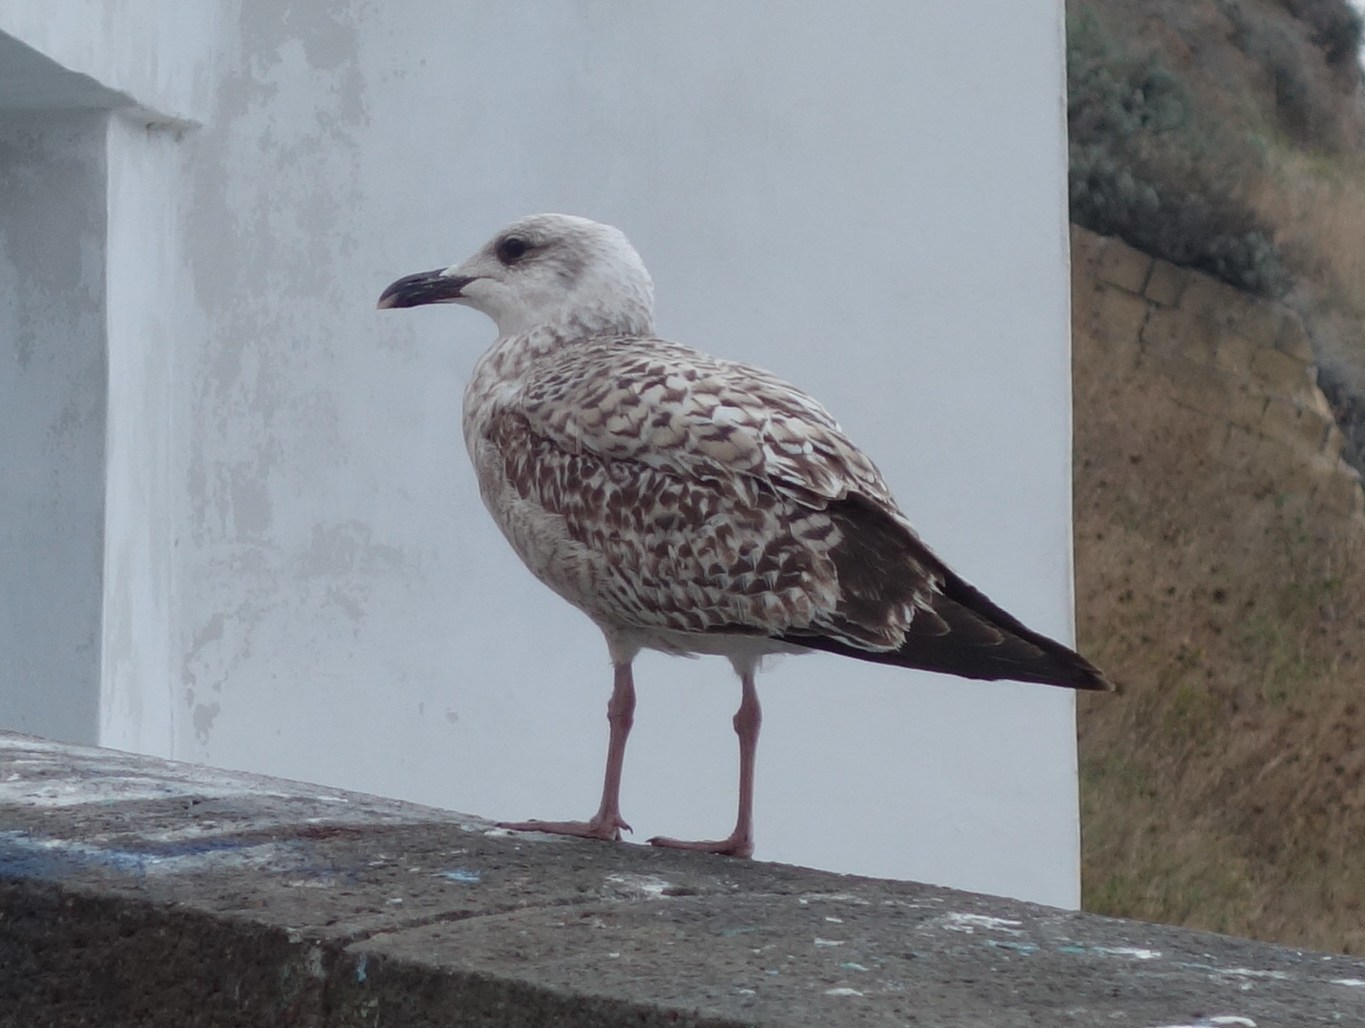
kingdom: Animalia
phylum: Chordata
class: Aves
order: Charadriiformes
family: Laridae
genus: Larus
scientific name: Larus michahellis
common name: Yellow-legged gull
